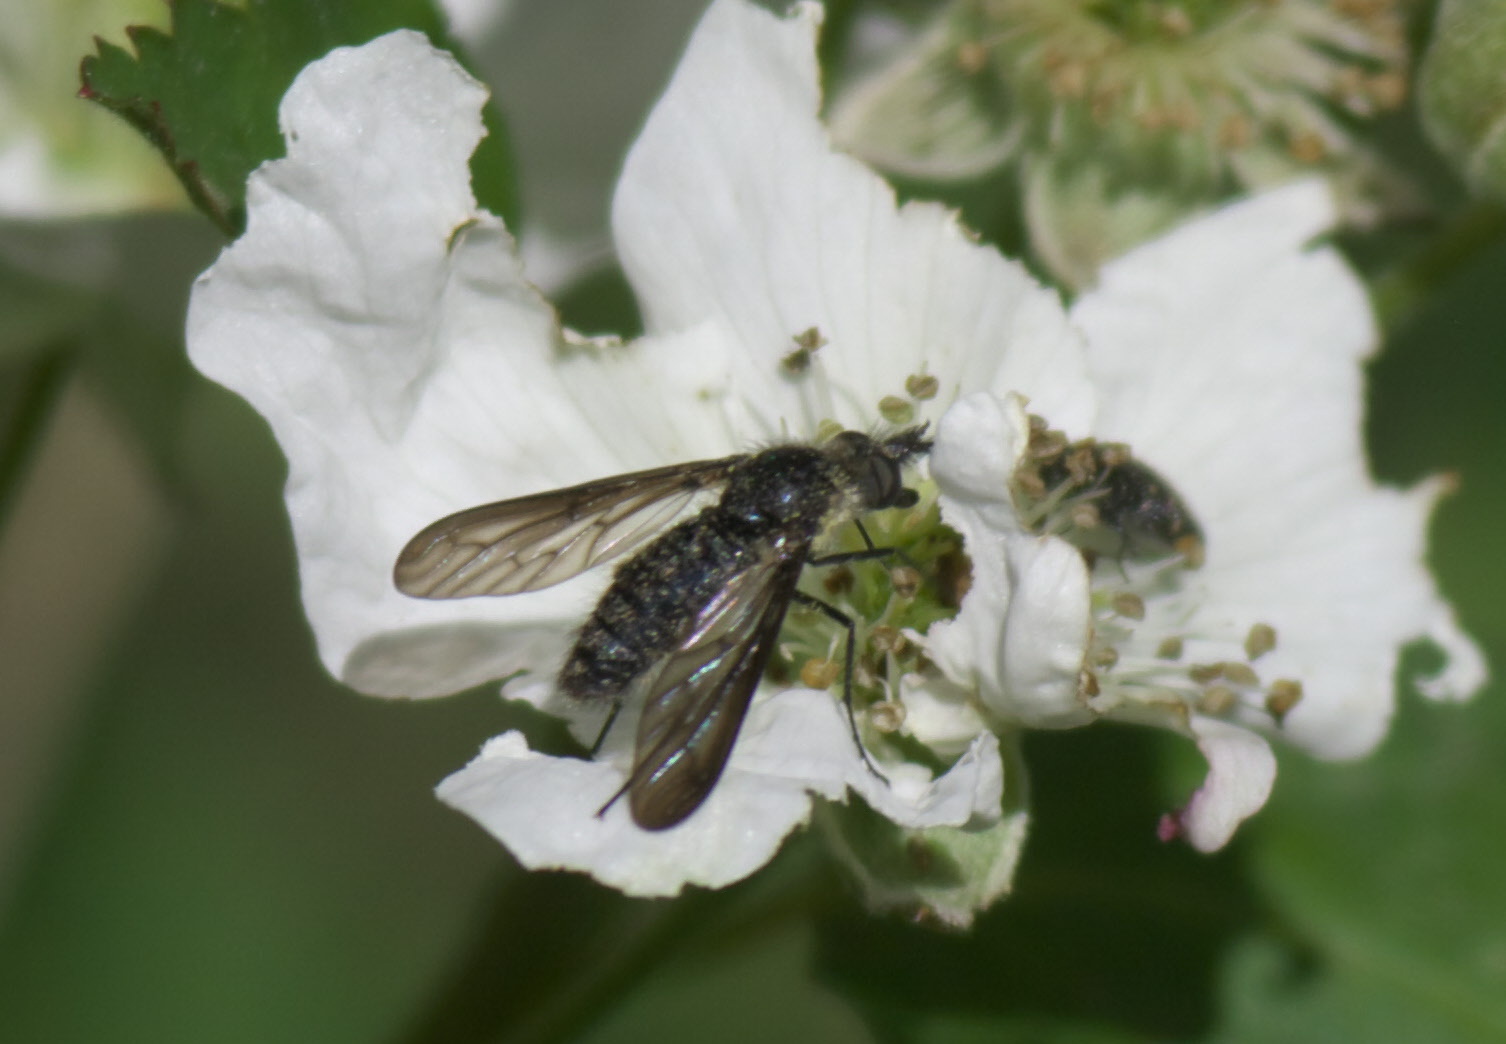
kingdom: Animalia
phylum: Arthropoda
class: Insecta
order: Diptera
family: Bombyliidae
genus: Aldrichia
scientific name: Aldrichia ehrmanni
